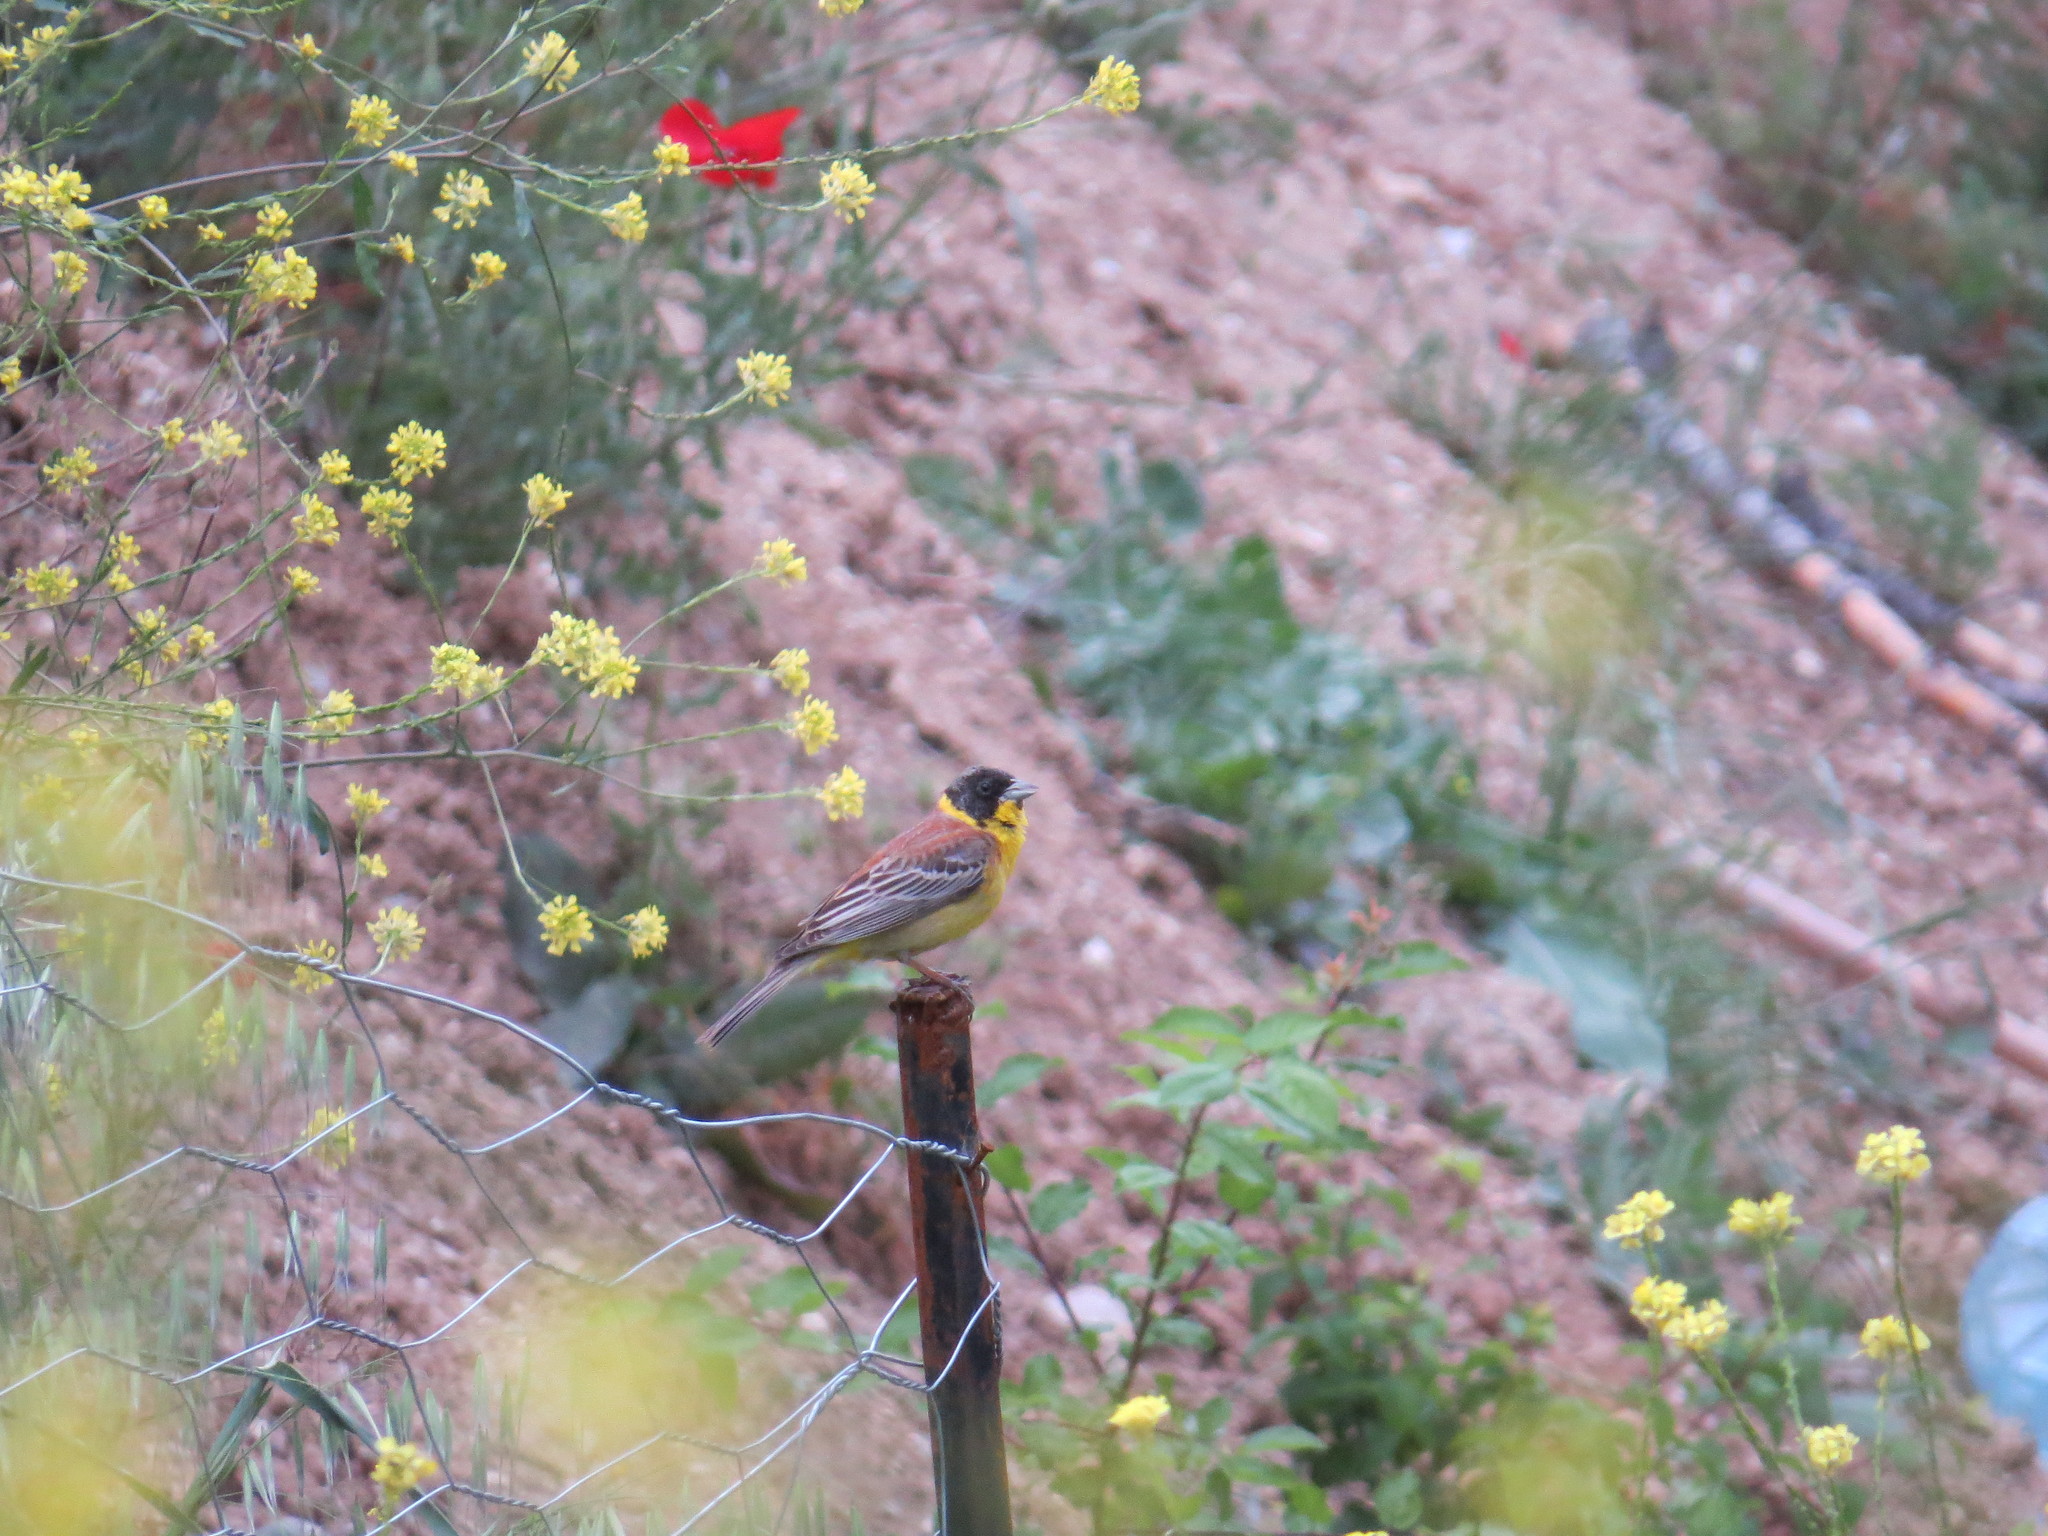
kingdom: Animalia
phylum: Chordata
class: Aves
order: Passeriformes
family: Emberizidae
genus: Emberiza
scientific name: Emberiza melanocephala
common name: Black-headed bunting
